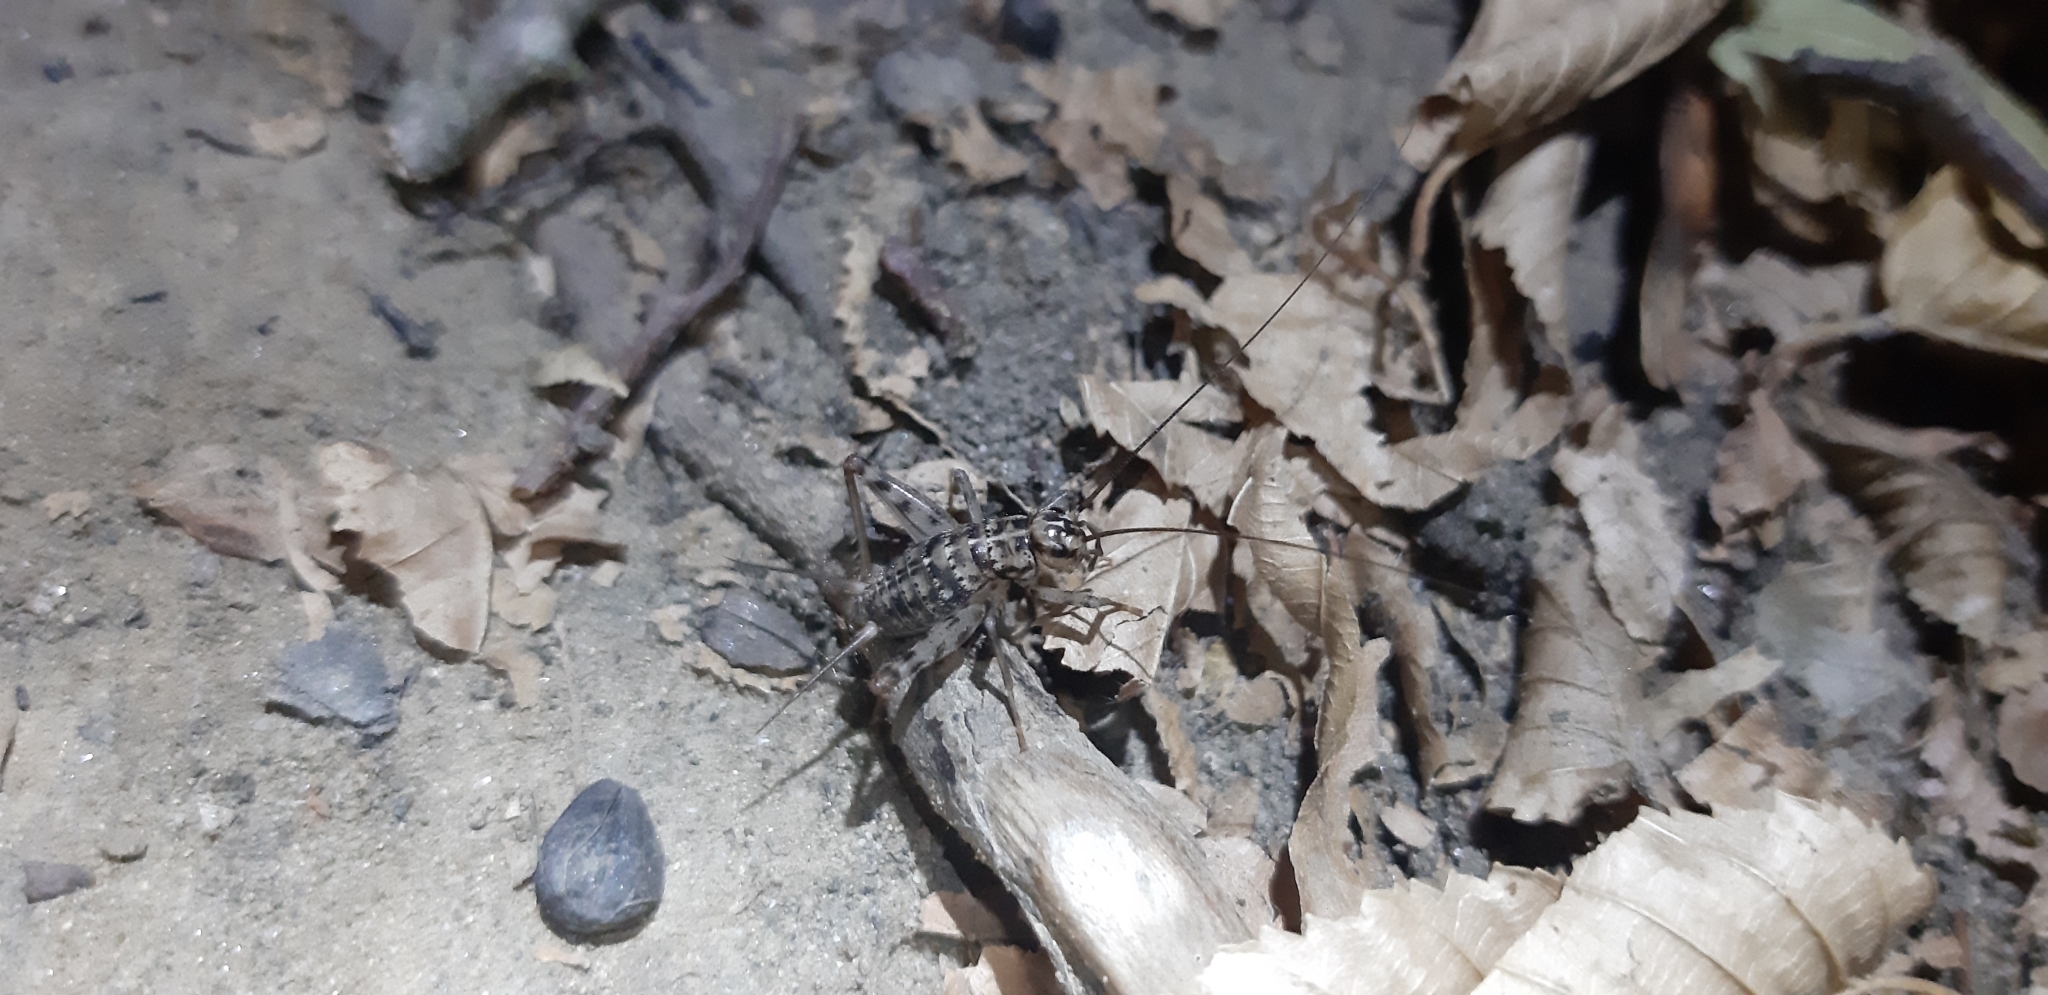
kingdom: Animalia
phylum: Arthropoda
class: Insecta
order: Orthoptera
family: Gryllidae
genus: Gryllomorpha
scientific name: Gryllomorpha dalmatina
